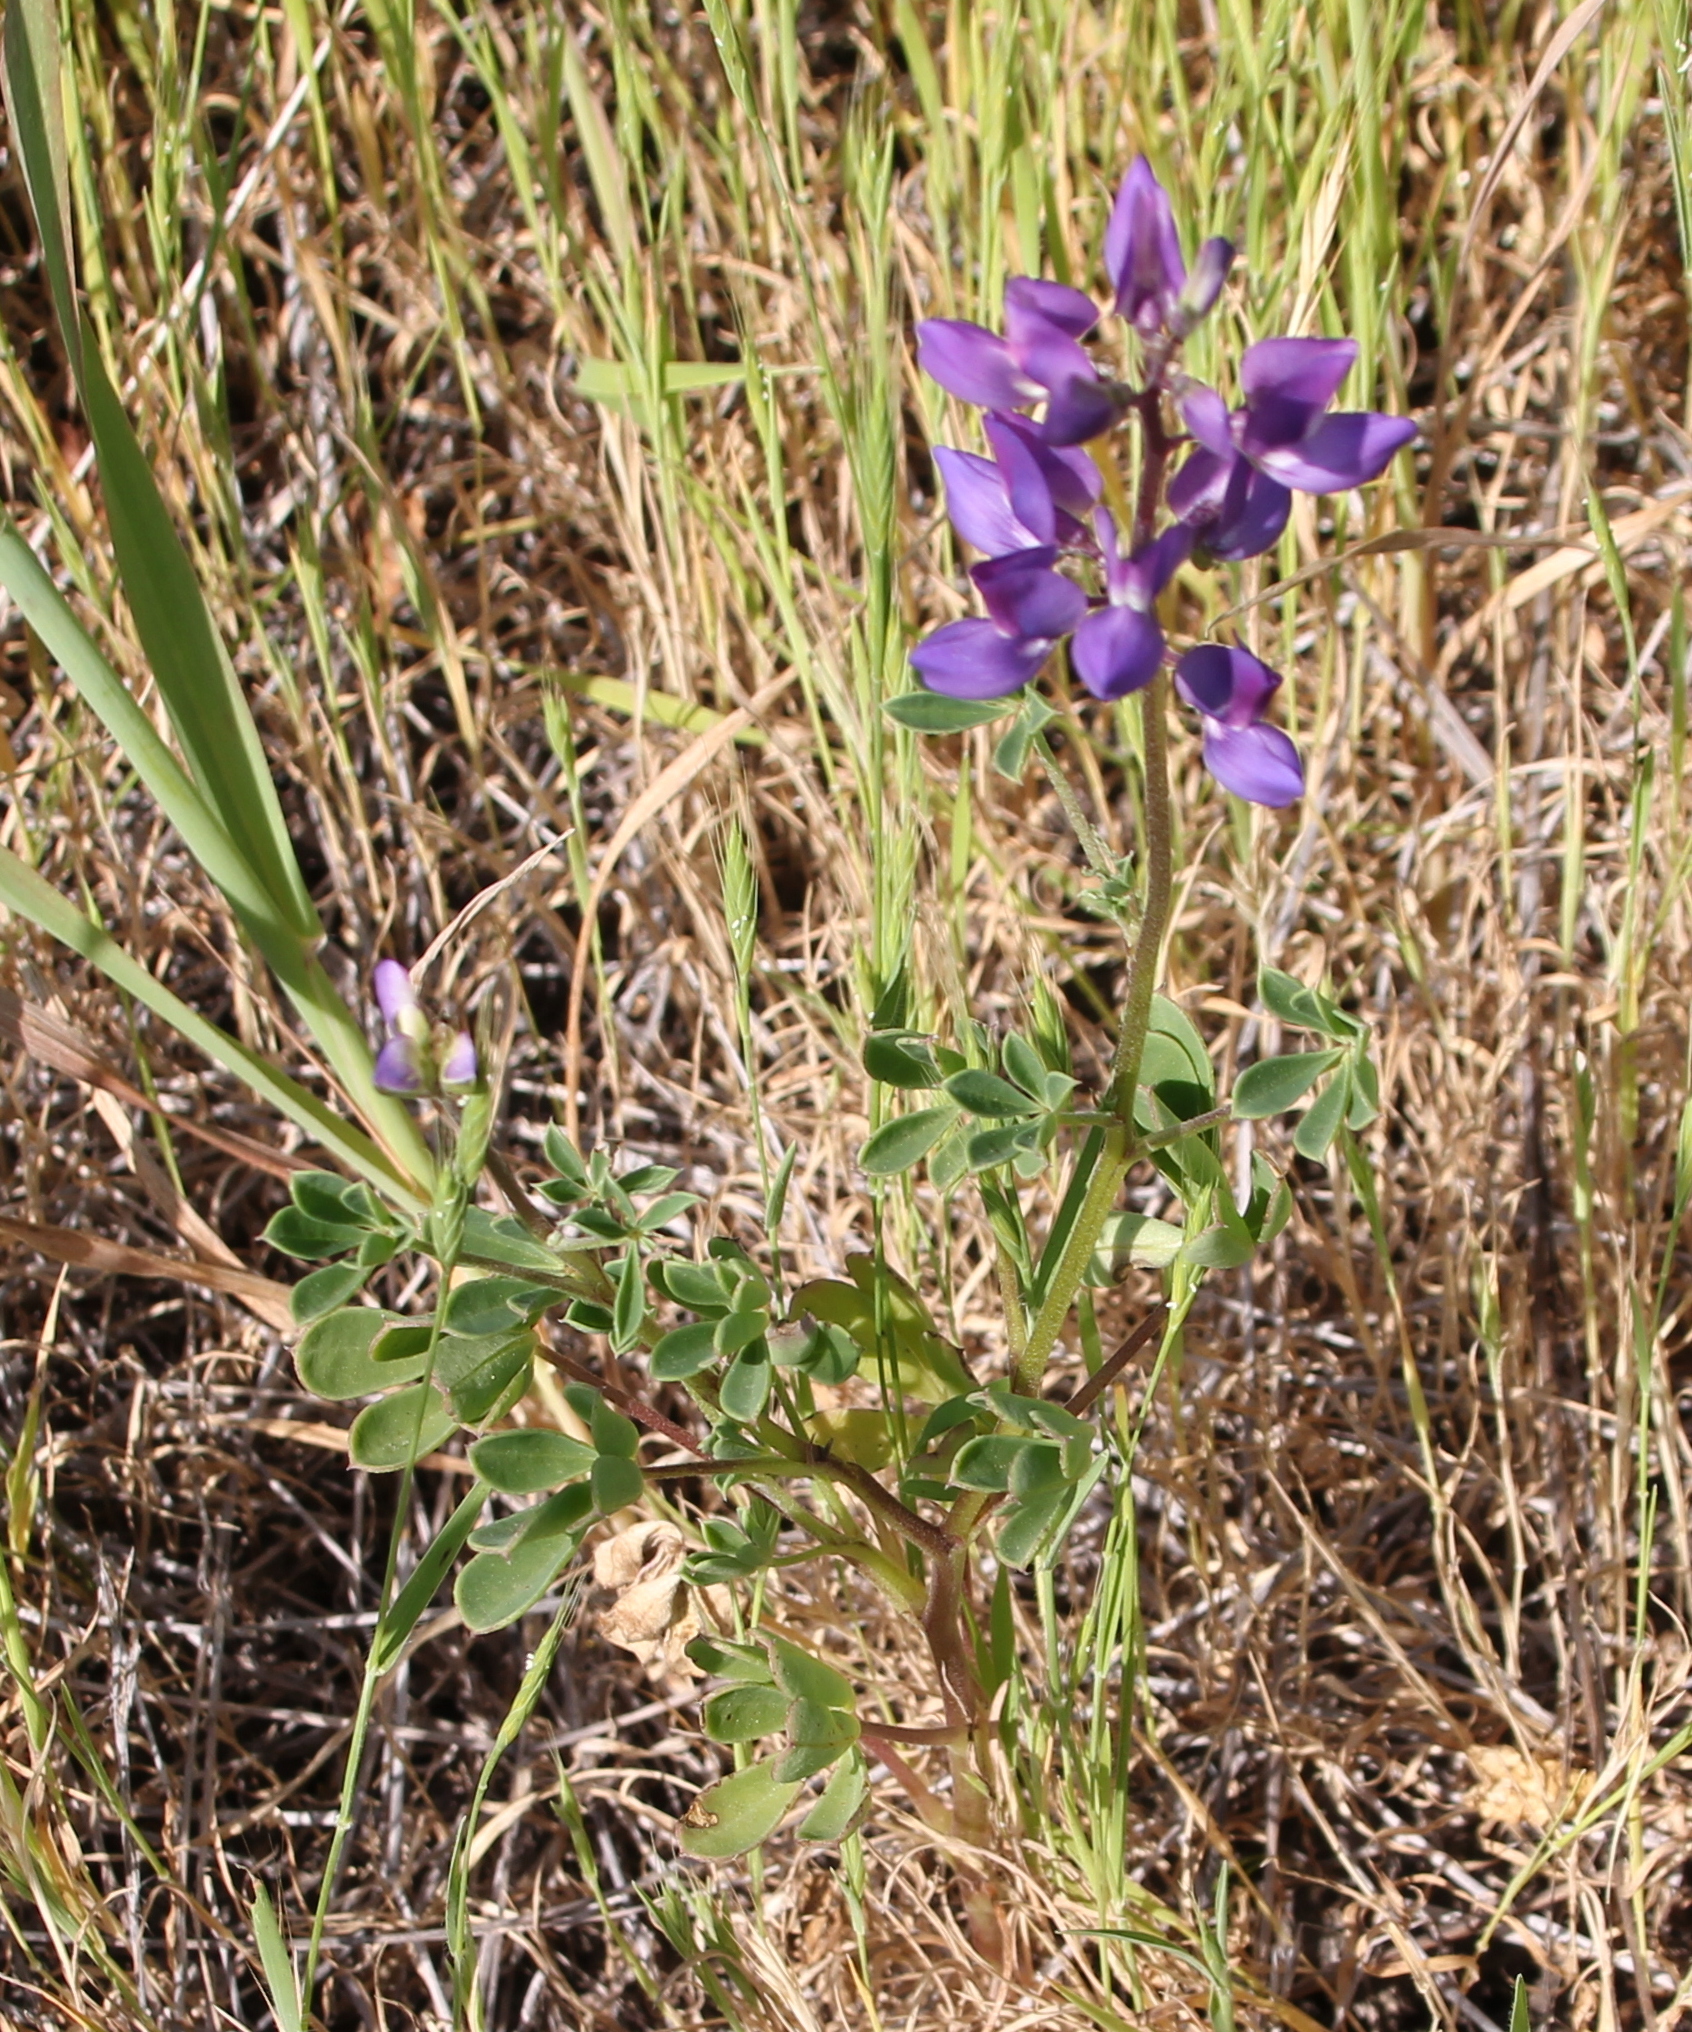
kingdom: Plantae
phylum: Tracheophyta
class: Magnoliopsida
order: Fabales
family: Fabaceae
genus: Lupinus
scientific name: Lupinus succulentus
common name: Arroyo lupine
